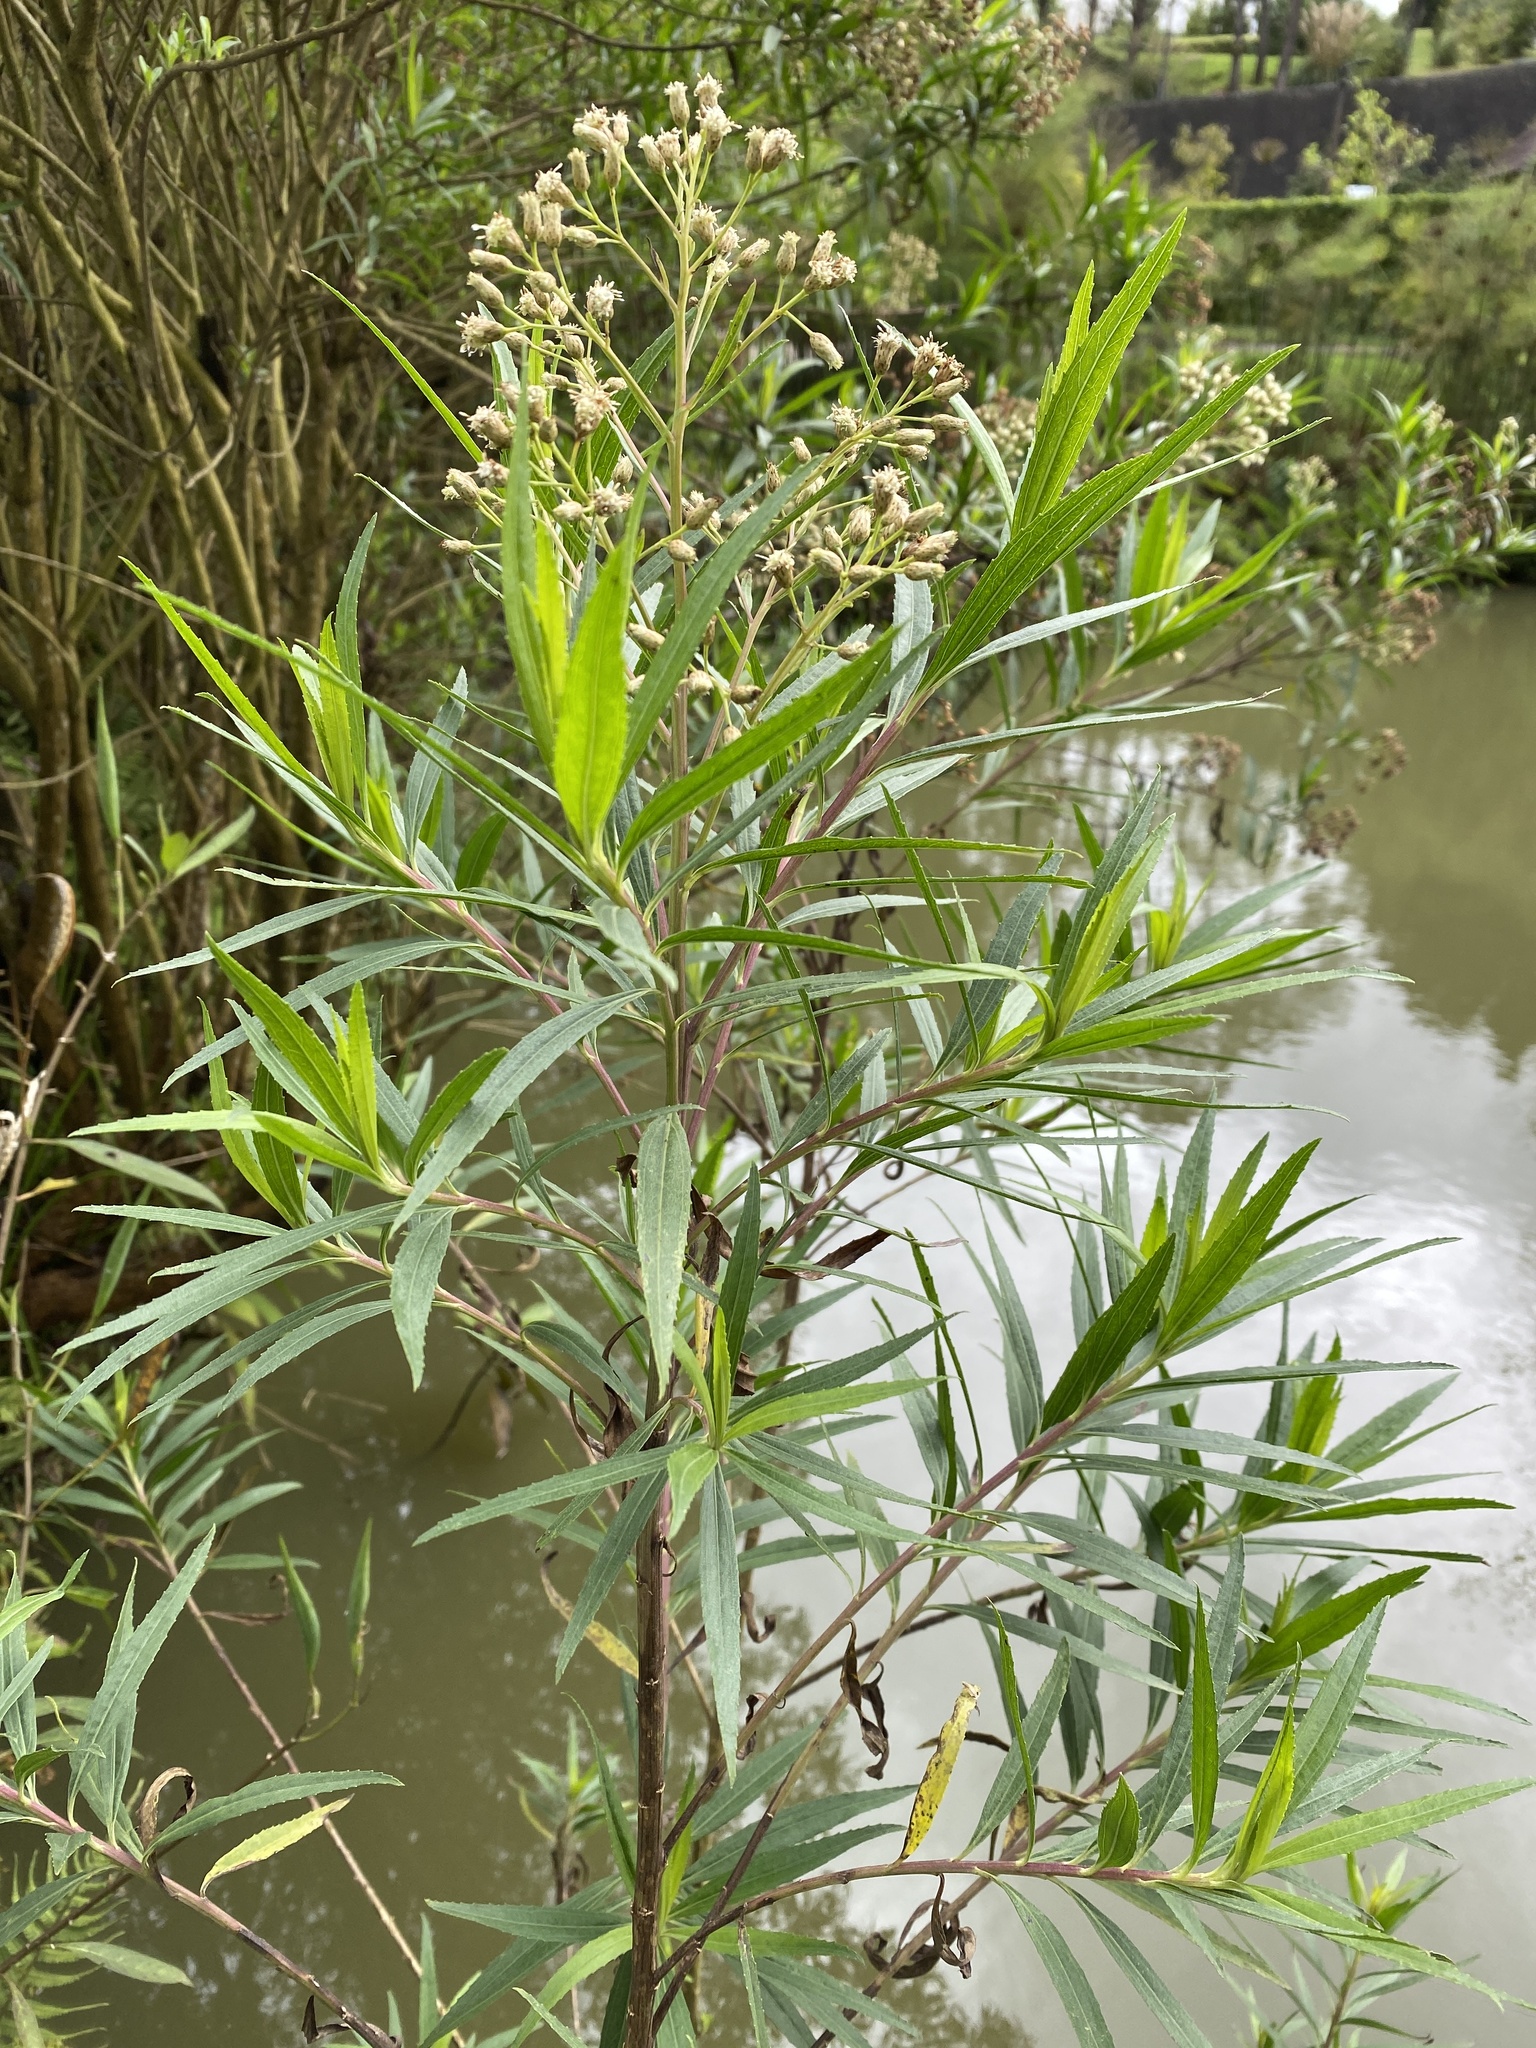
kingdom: Plantae
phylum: Tracheophyta
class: Magnoliopsida
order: Asterales
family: Asteraceae
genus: Baccharis
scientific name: Baccharis salicifolia
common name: Sticky baccharis
